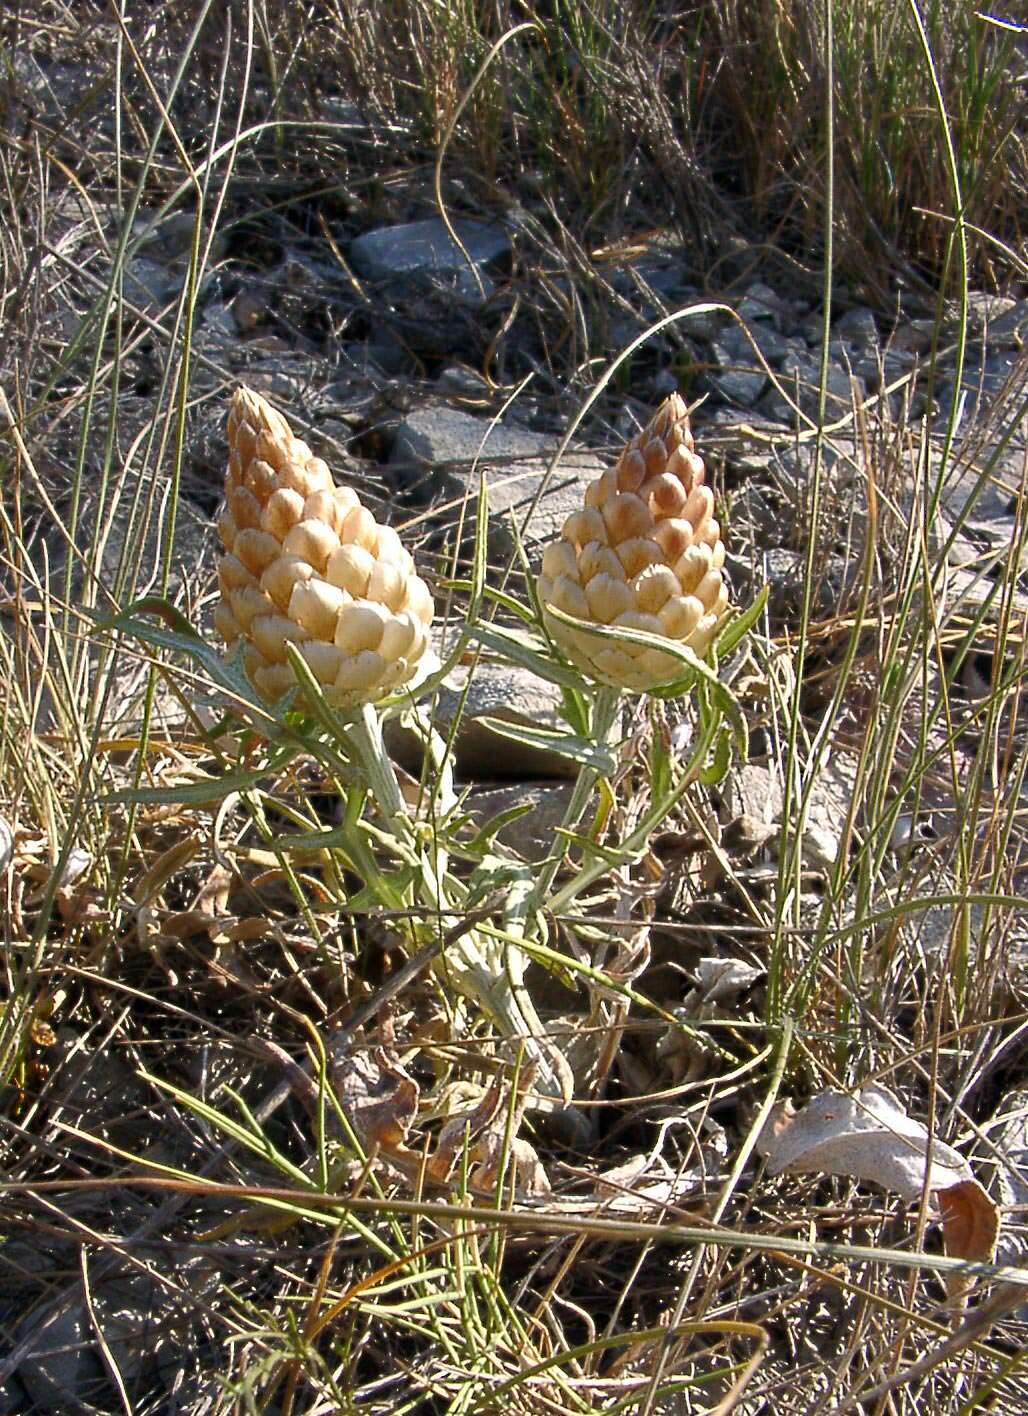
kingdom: Plantae
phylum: Tracheophyta
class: Magnoliopsida
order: Asterales
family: Asteraceae
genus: Leuzea
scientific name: Leuzea conifera
